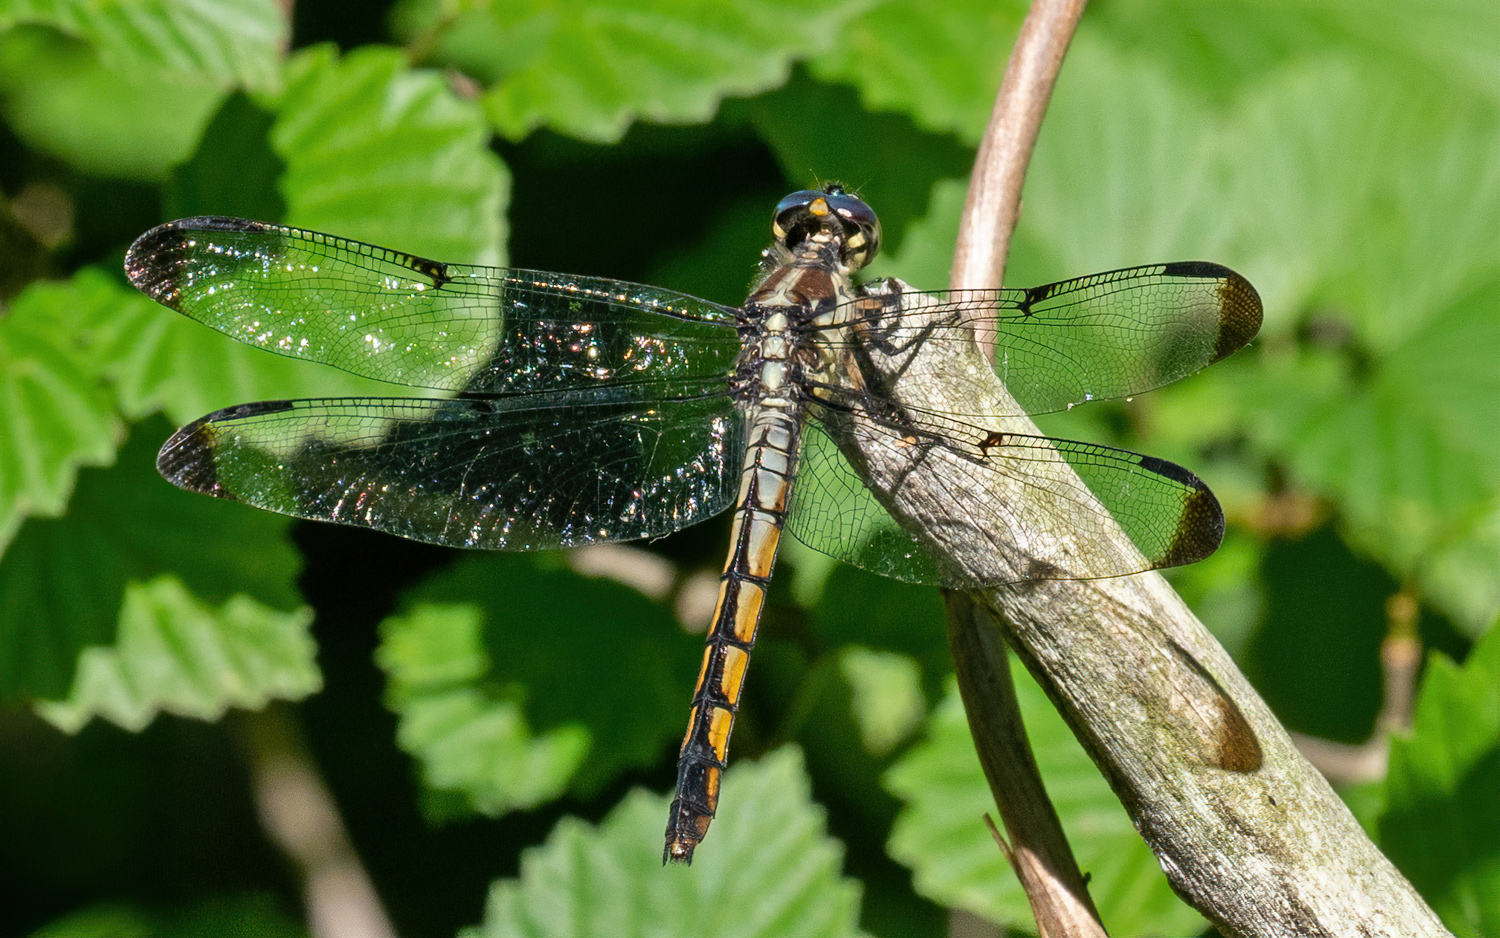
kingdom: Animalia
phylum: Arthropoda
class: Insecta
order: Odonata
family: Libellulidae
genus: Libellula
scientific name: Libellula vibrans
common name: Great blue skimmer
